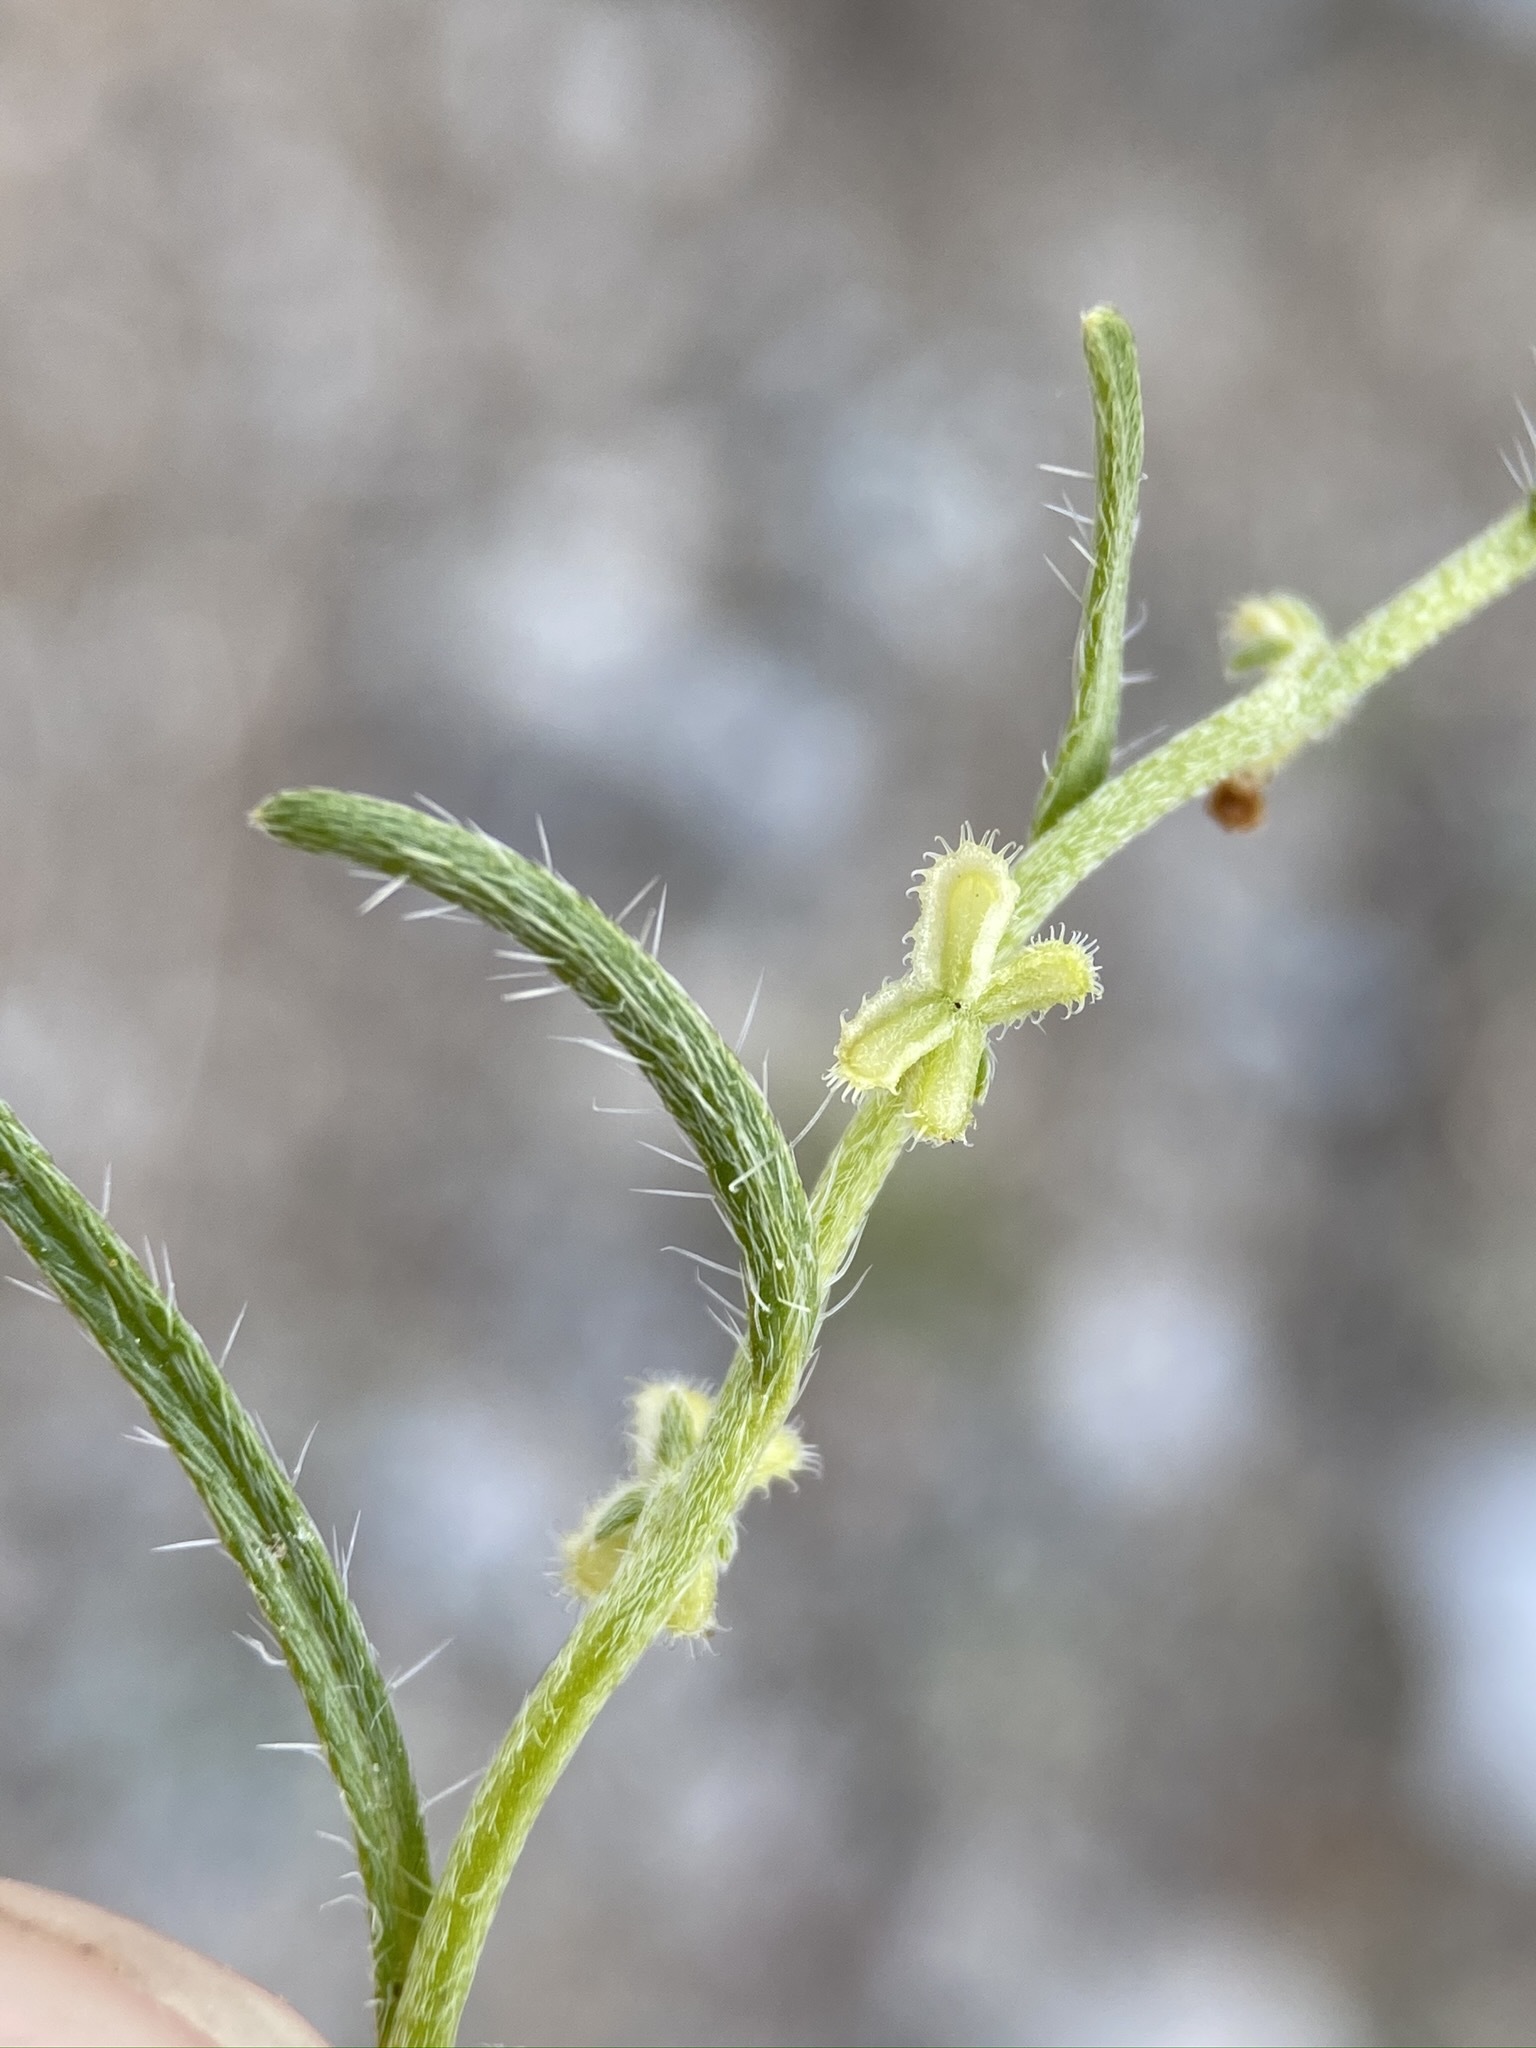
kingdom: Plantae
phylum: Tracheophyta
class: Magnoliopsida
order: Boraginales
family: Boraginaceae
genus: Pectocarya
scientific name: Pectocarya anisocarpa
